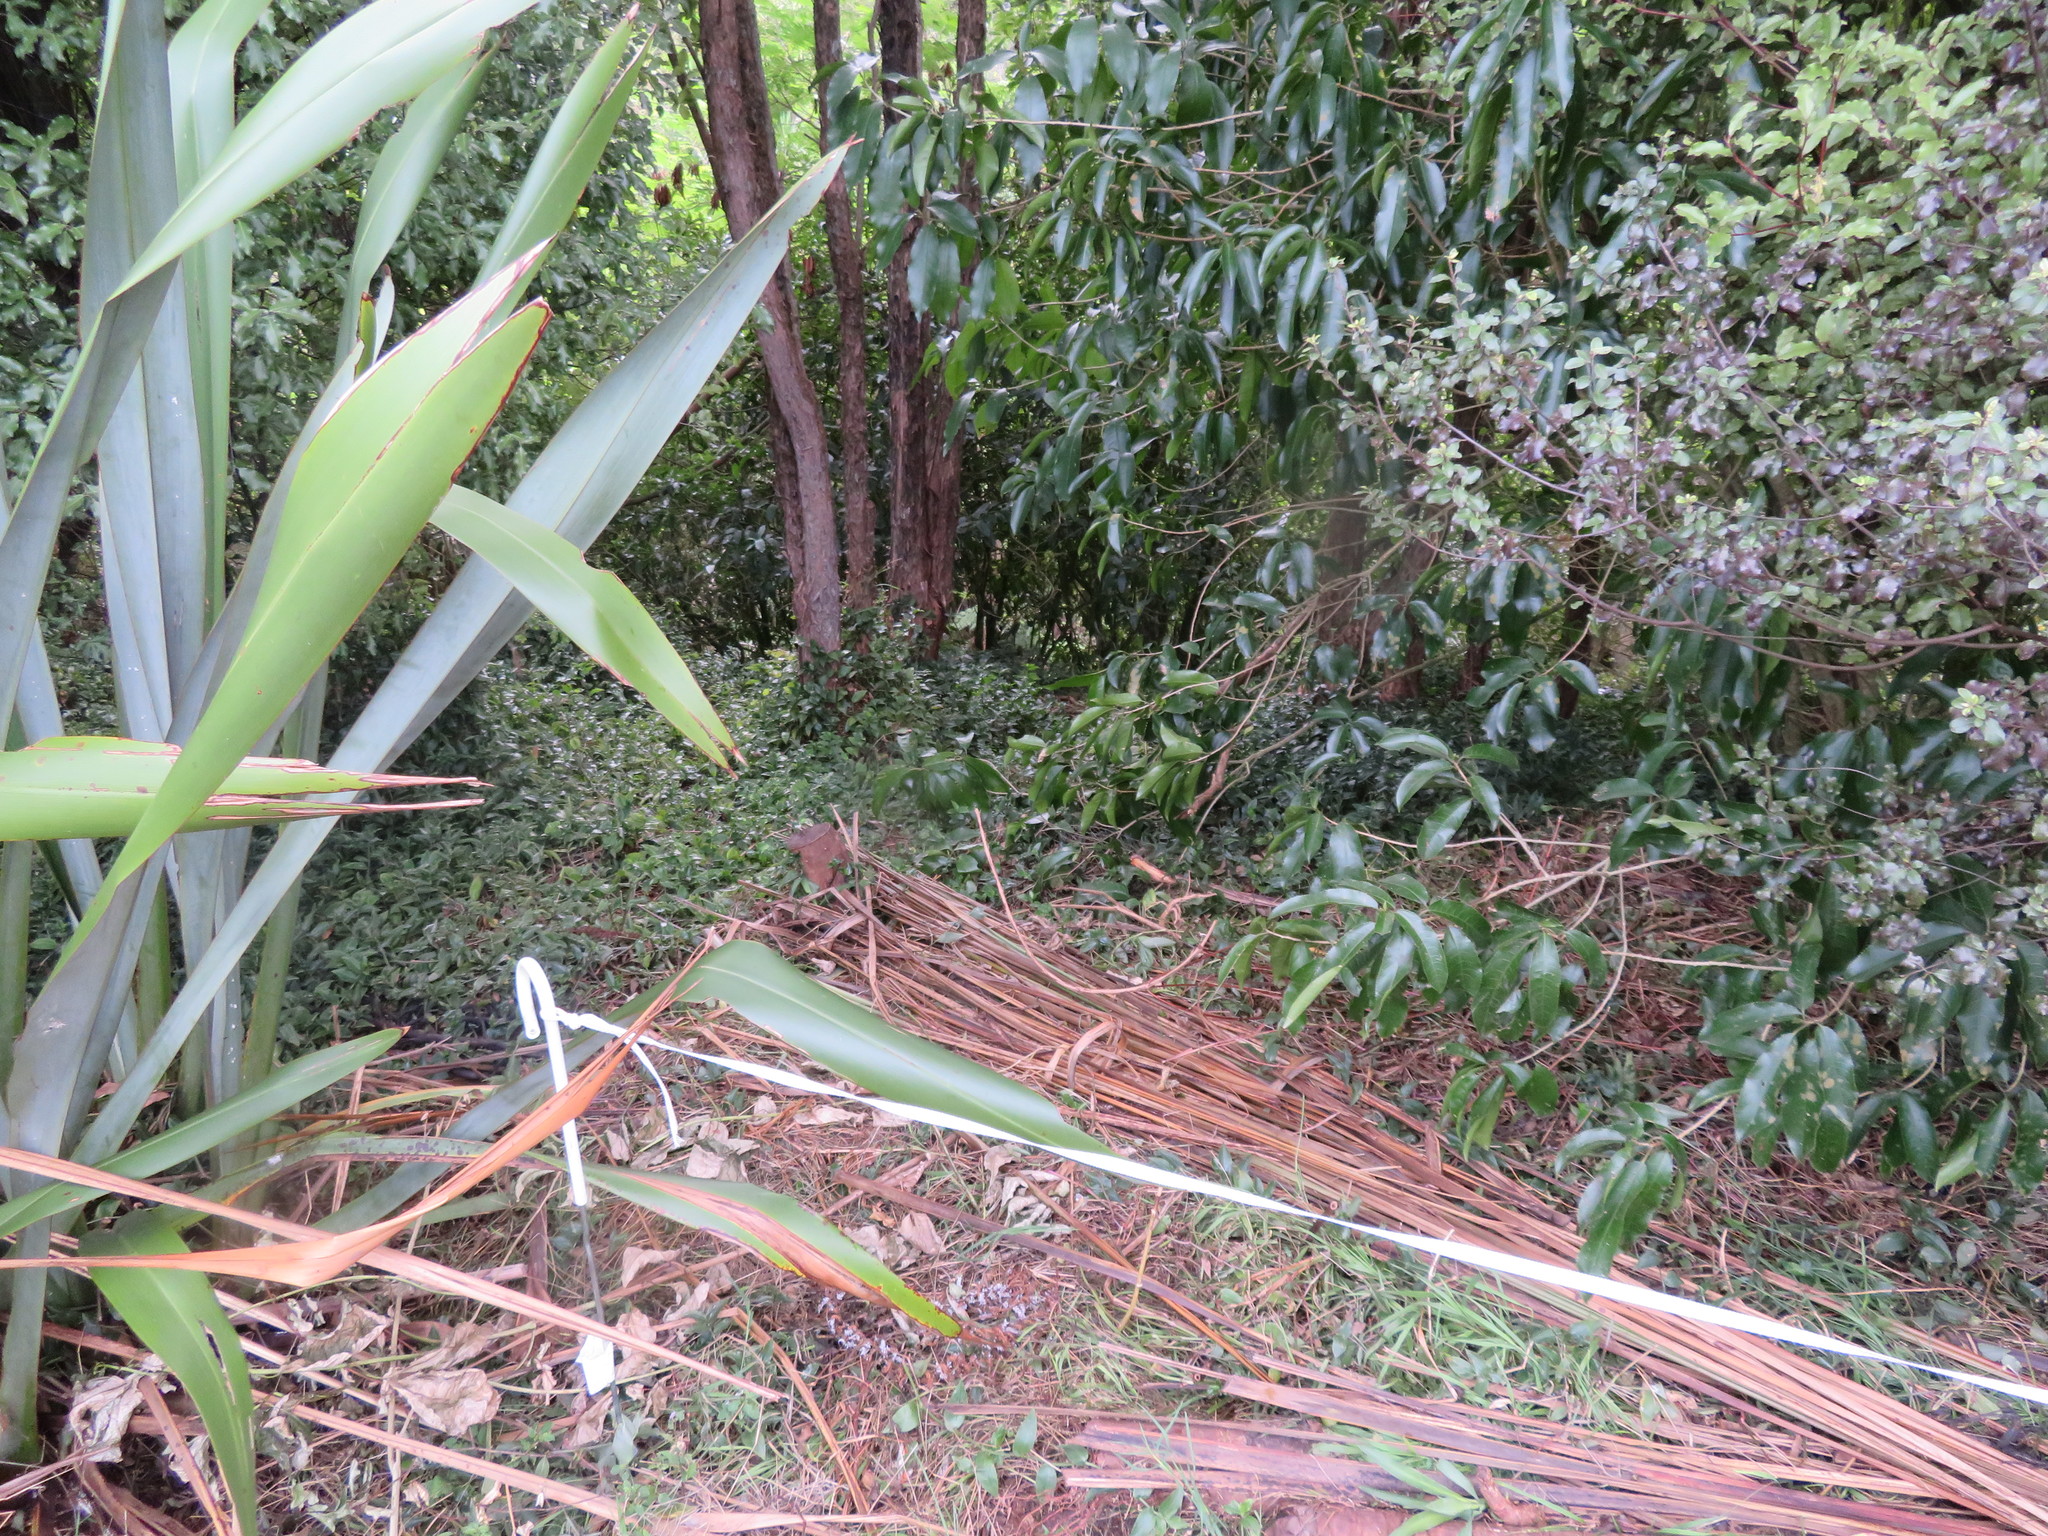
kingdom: Plantae
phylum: Tracheophyta
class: Liliopsida
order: Commelinales
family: Commelinaceae
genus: Tradescantia
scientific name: Tradescantia fluminensis
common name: Wandering-jew
